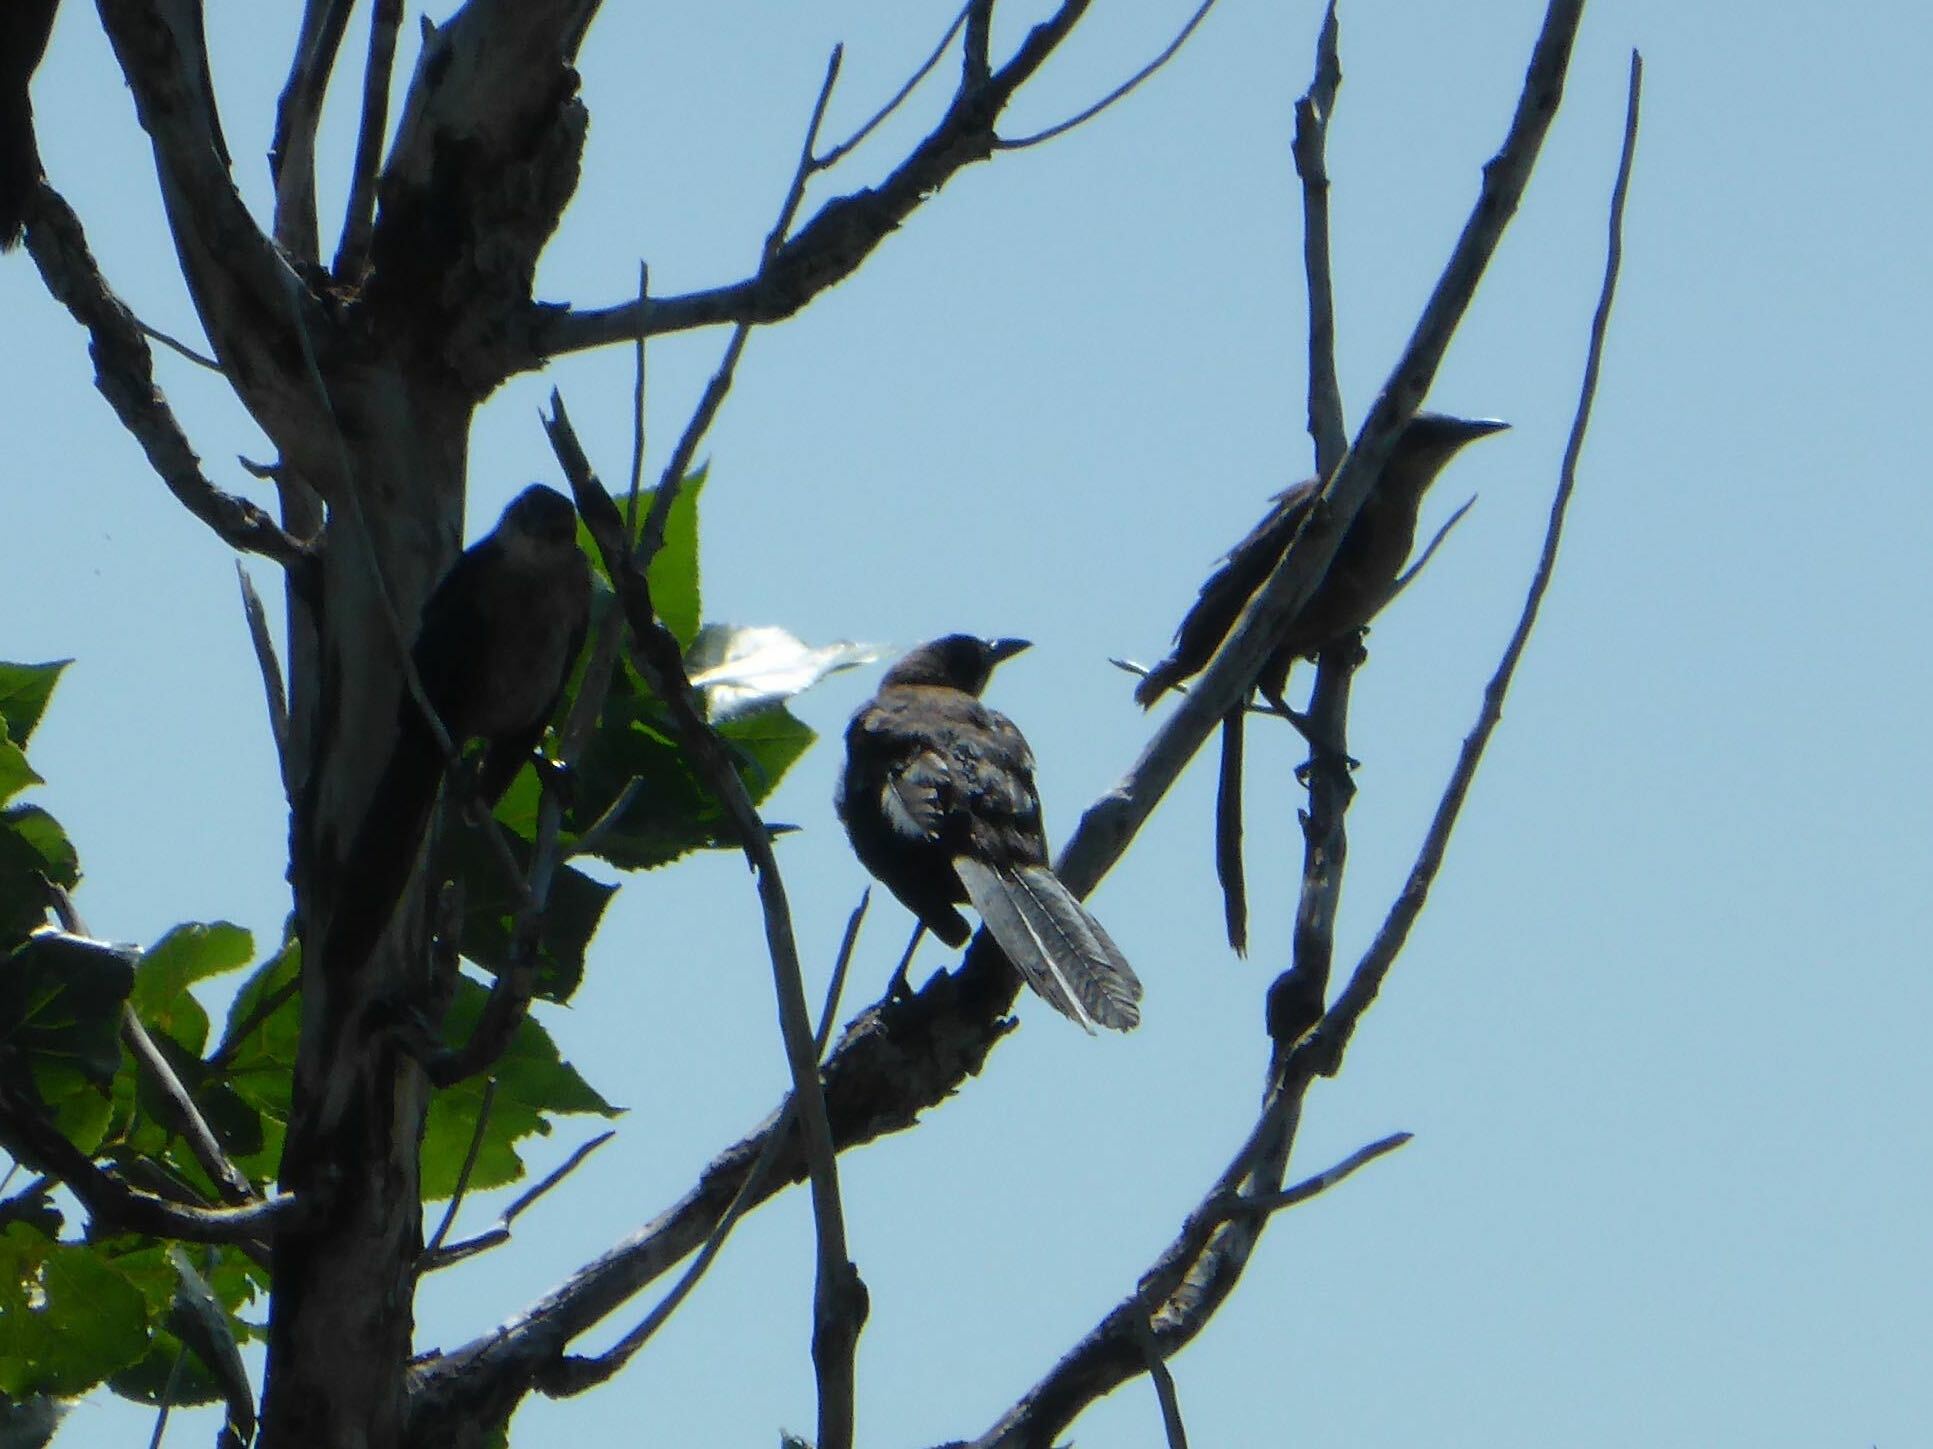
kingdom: Animalia
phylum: Chordata
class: Aves
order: Passeriformes
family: Icteridae
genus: Quiscalus
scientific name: Quiscalus mexicanus
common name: Great-tailed grackle
